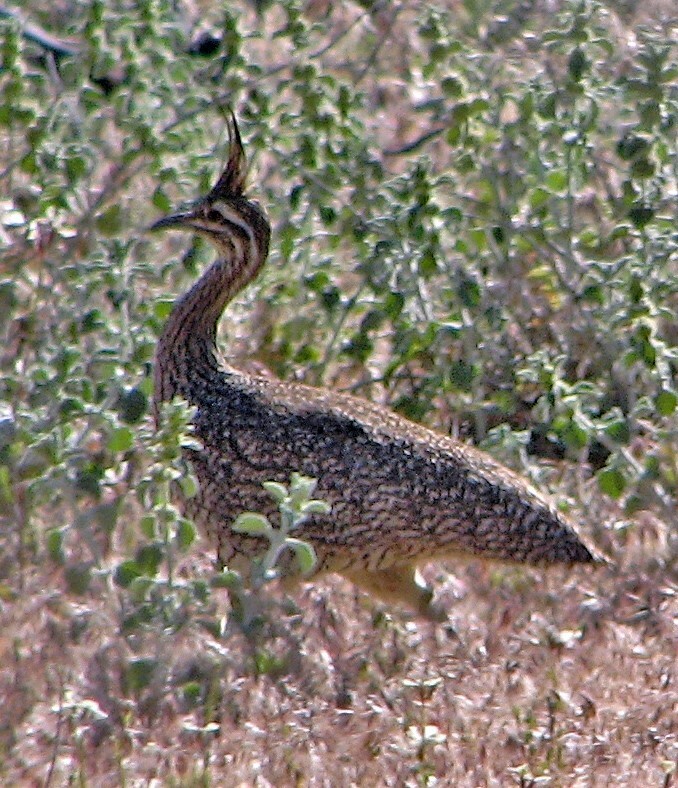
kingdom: Animalia
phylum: Chordata
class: Aves
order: Tinamiformes
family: Tinamidae
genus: Eudromia
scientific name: Eudromia elegans
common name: Elegant crested tinamou
